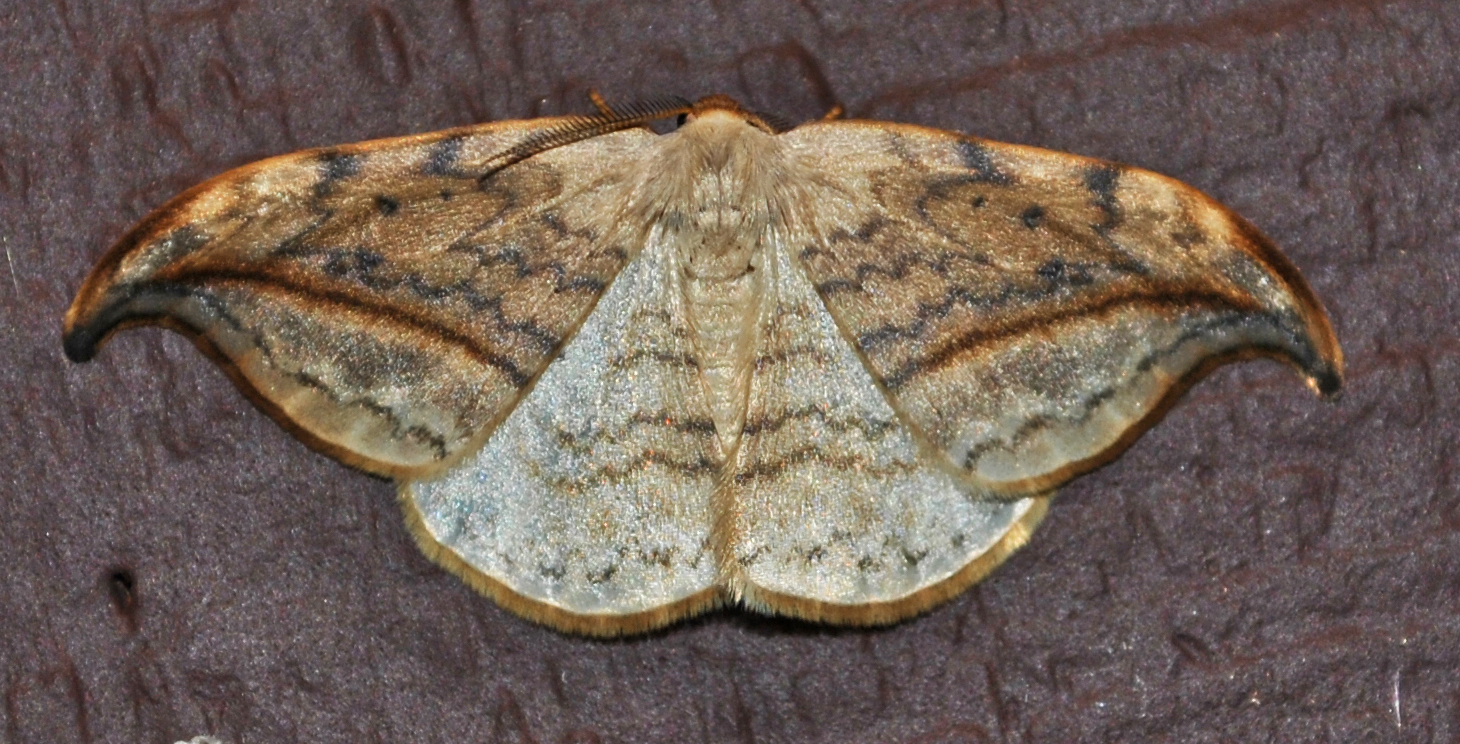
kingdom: Animalia
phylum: Arthropoda
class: Insecta
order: Lepidoptera
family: Drepanidae
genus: Drepana
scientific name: Drepana arcuata
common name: Arched hooktip moth
